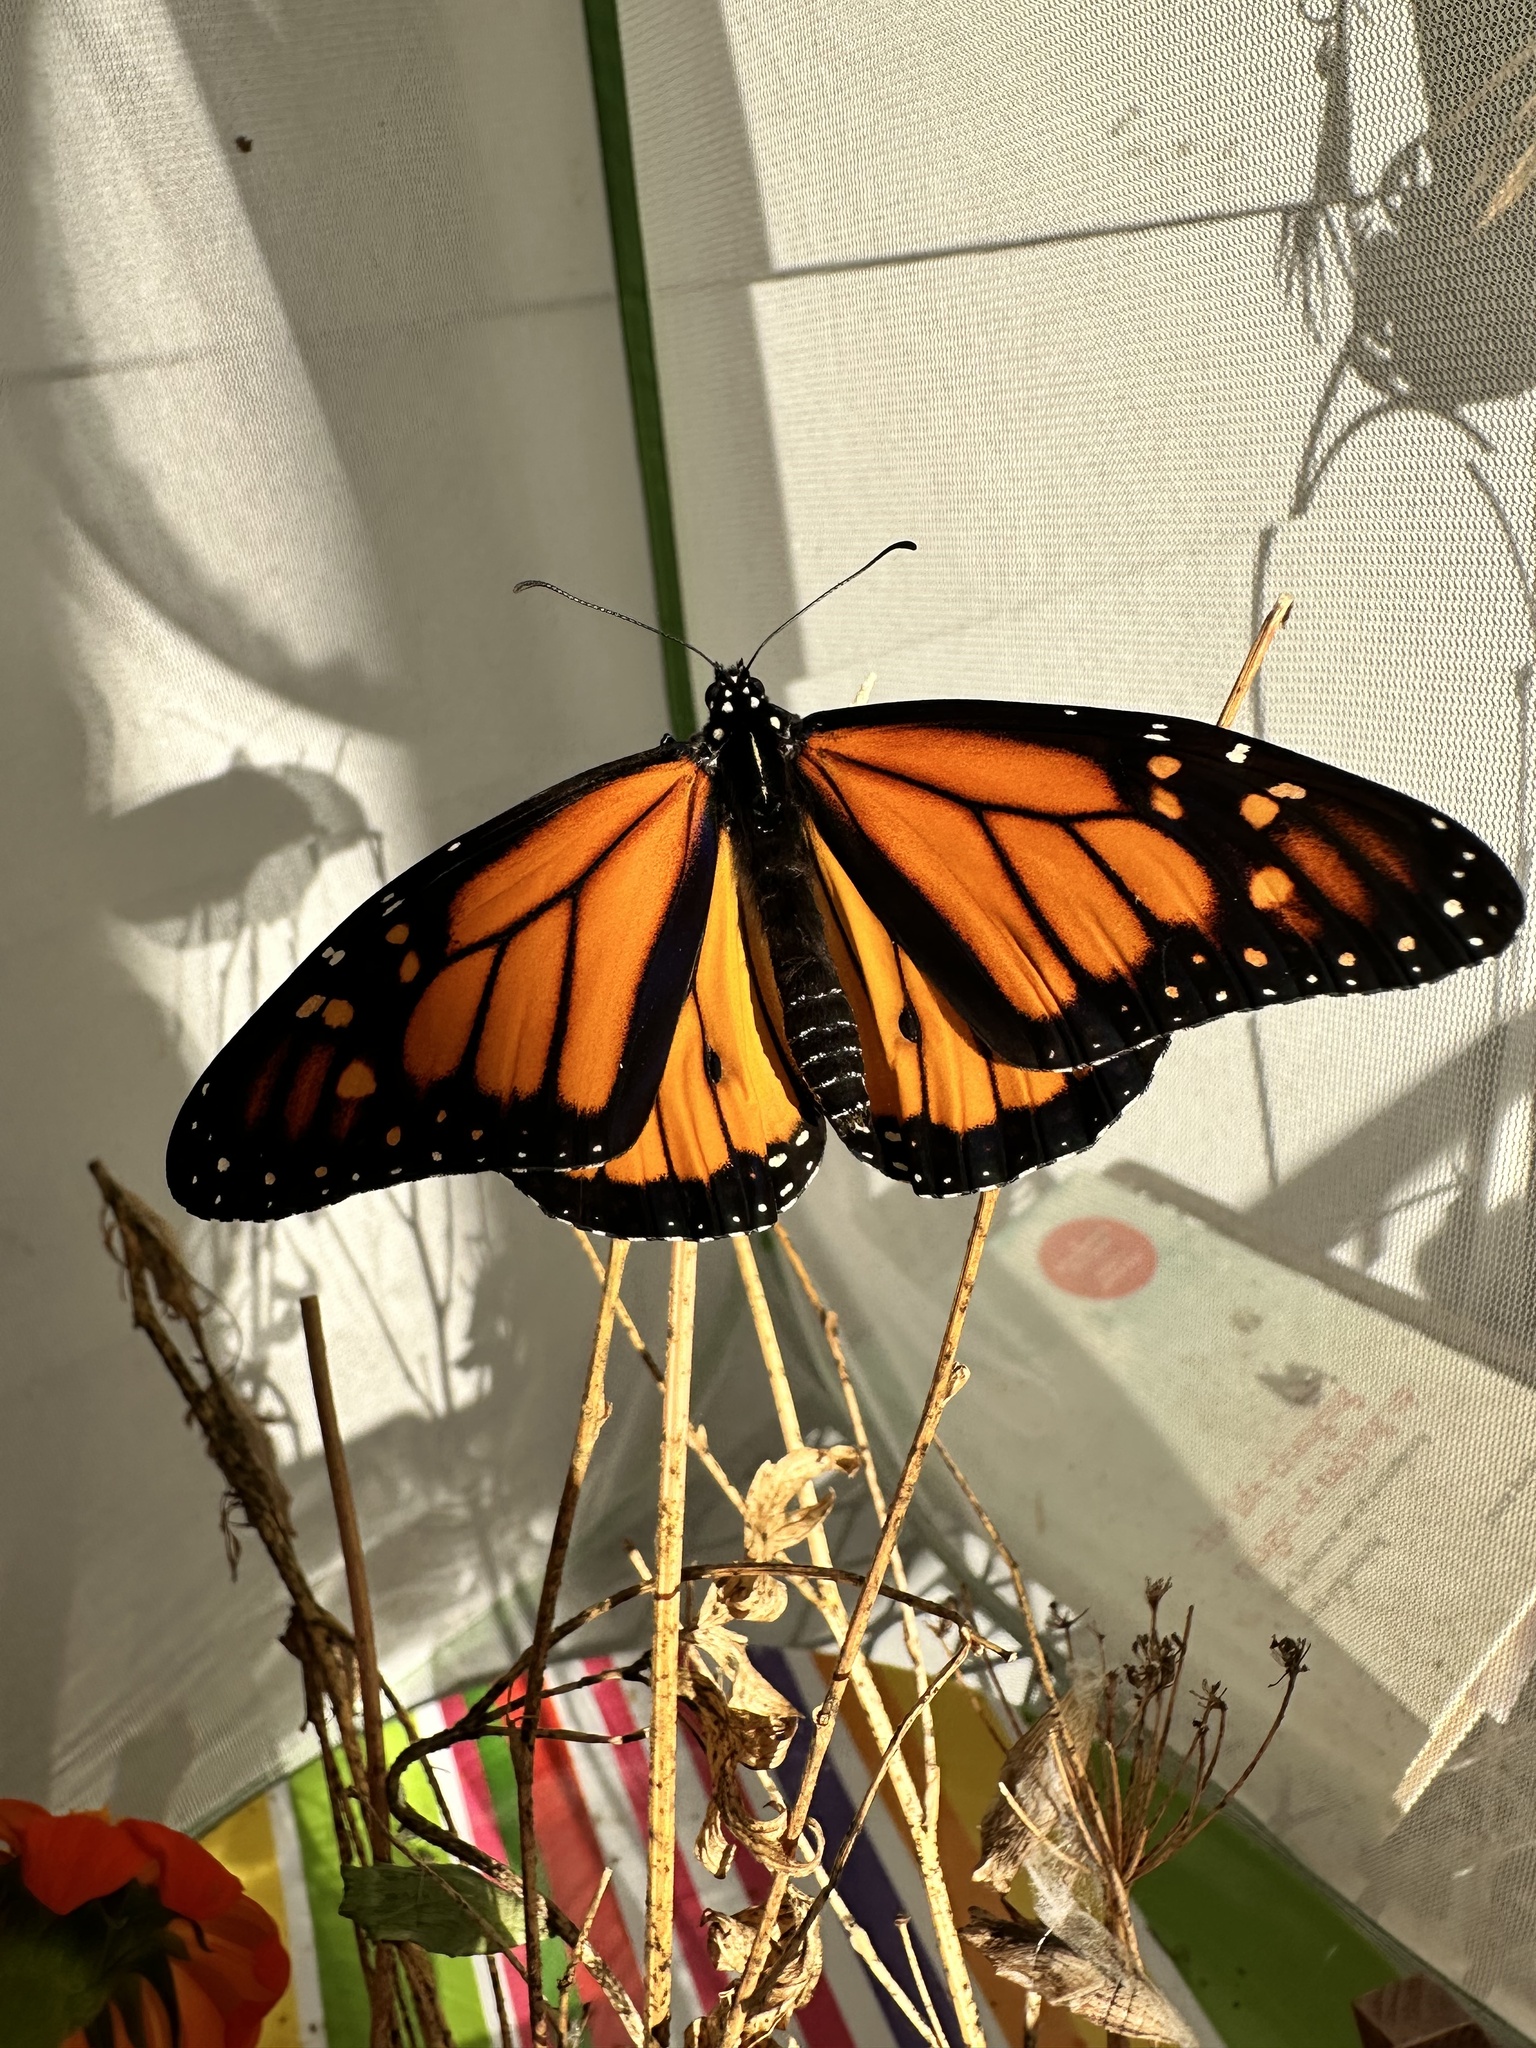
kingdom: Animalia
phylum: Arthropoda
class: Insecta
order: Lepidoptera
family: Nymphalidae
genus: Danaus
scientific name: Danaus plexippus
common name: Monarch
